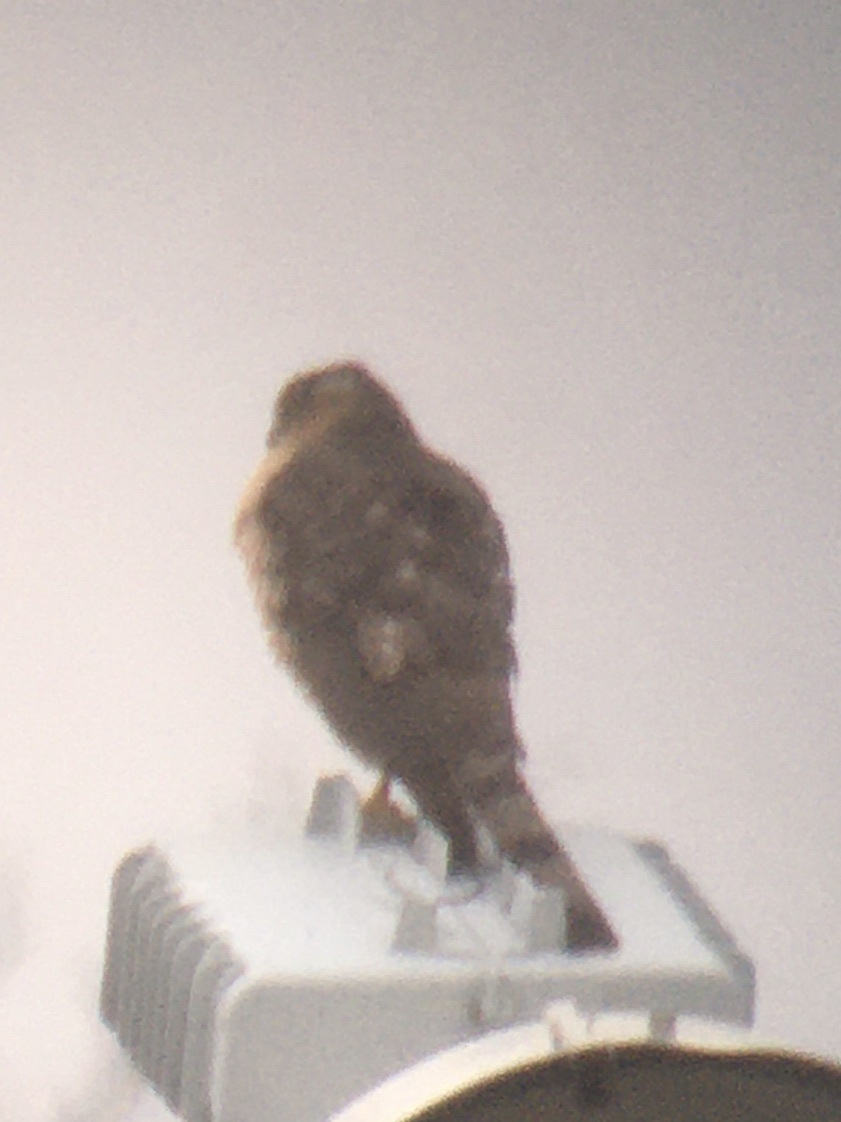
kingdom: Animalia
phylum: Chordata
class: Aves
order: Accipitriformes
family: Accipitridae
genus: Accipiter
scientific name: Accipiter striatus
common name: Sharp-shinned hawk
